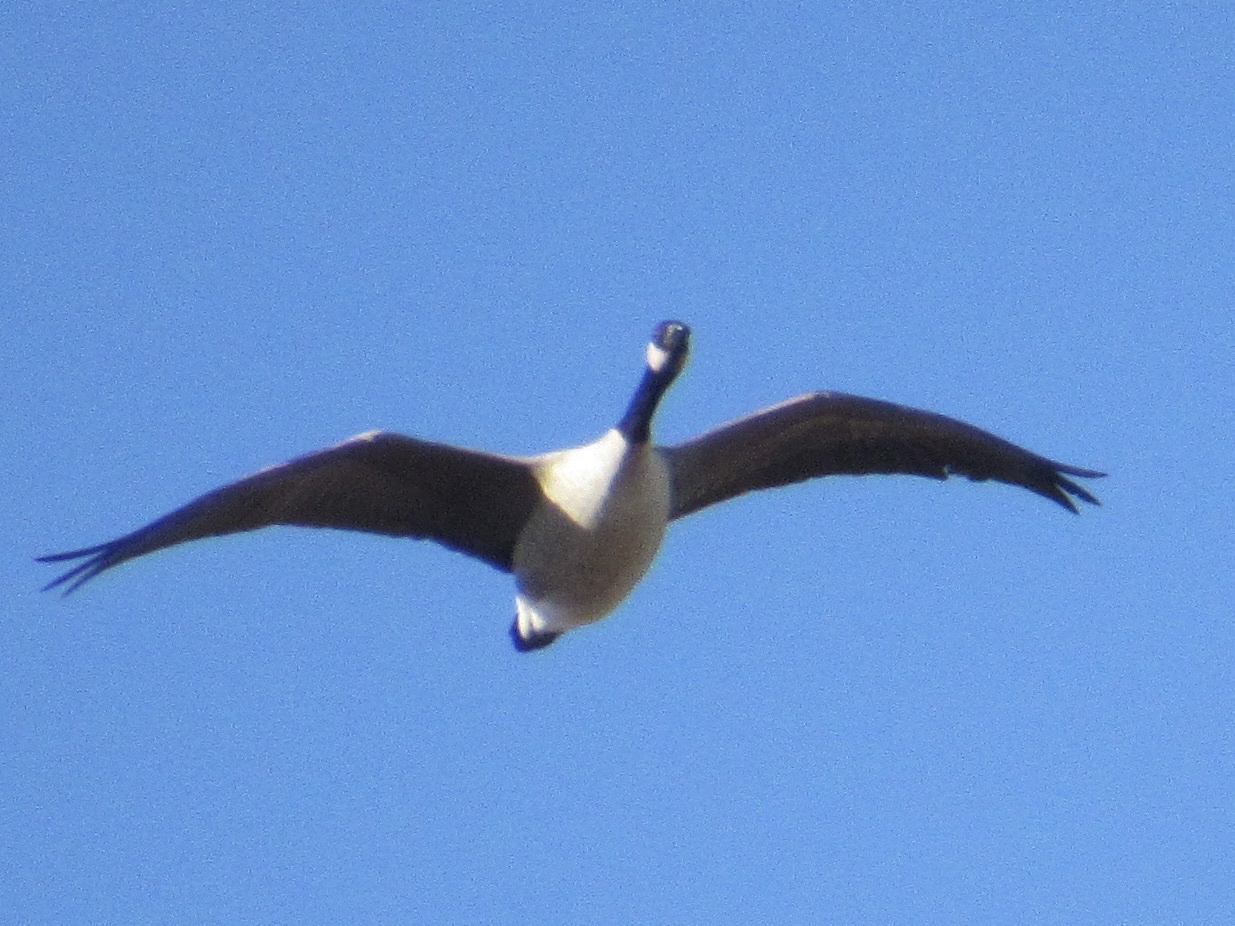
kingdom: Animalia
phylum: Chordata
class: Aves
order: Anseriformes
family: Anatidae
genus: Branta
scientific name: Branta canadensis
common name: Canada goose
